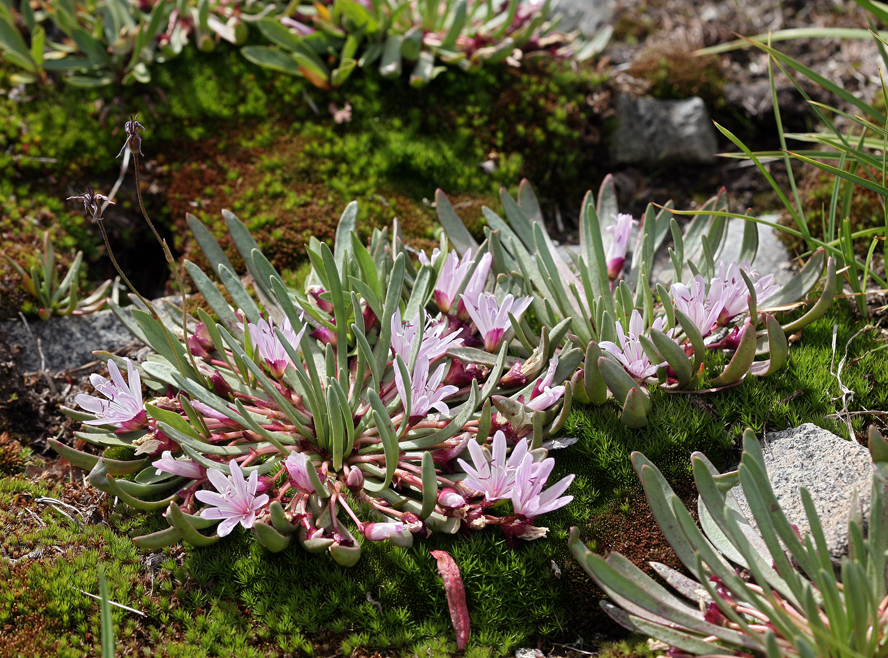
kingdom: Plantae
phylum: Tracheophyta
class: Magnoliopsida
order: Caryophyllales
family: Montiaceae
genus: Lewisia
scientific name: Lewisia longipetala
